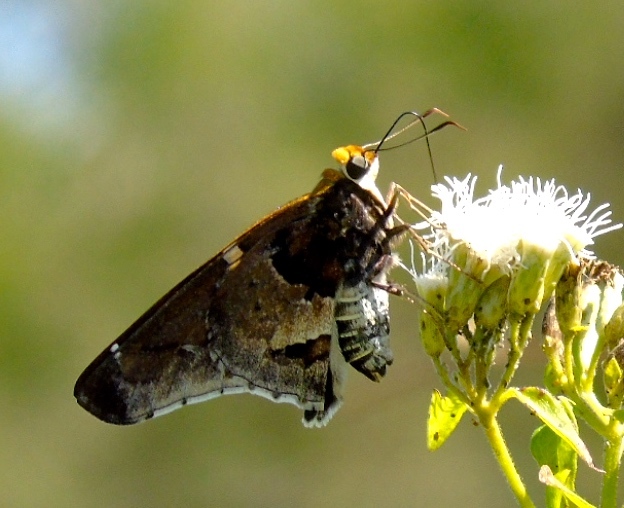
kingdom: Animalia
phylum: Arthropoda
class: Insecta
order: Lepidoptera
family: Hesperiidae
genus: Proteides
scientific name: Proteides mercurius
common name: Mercurial skipper
